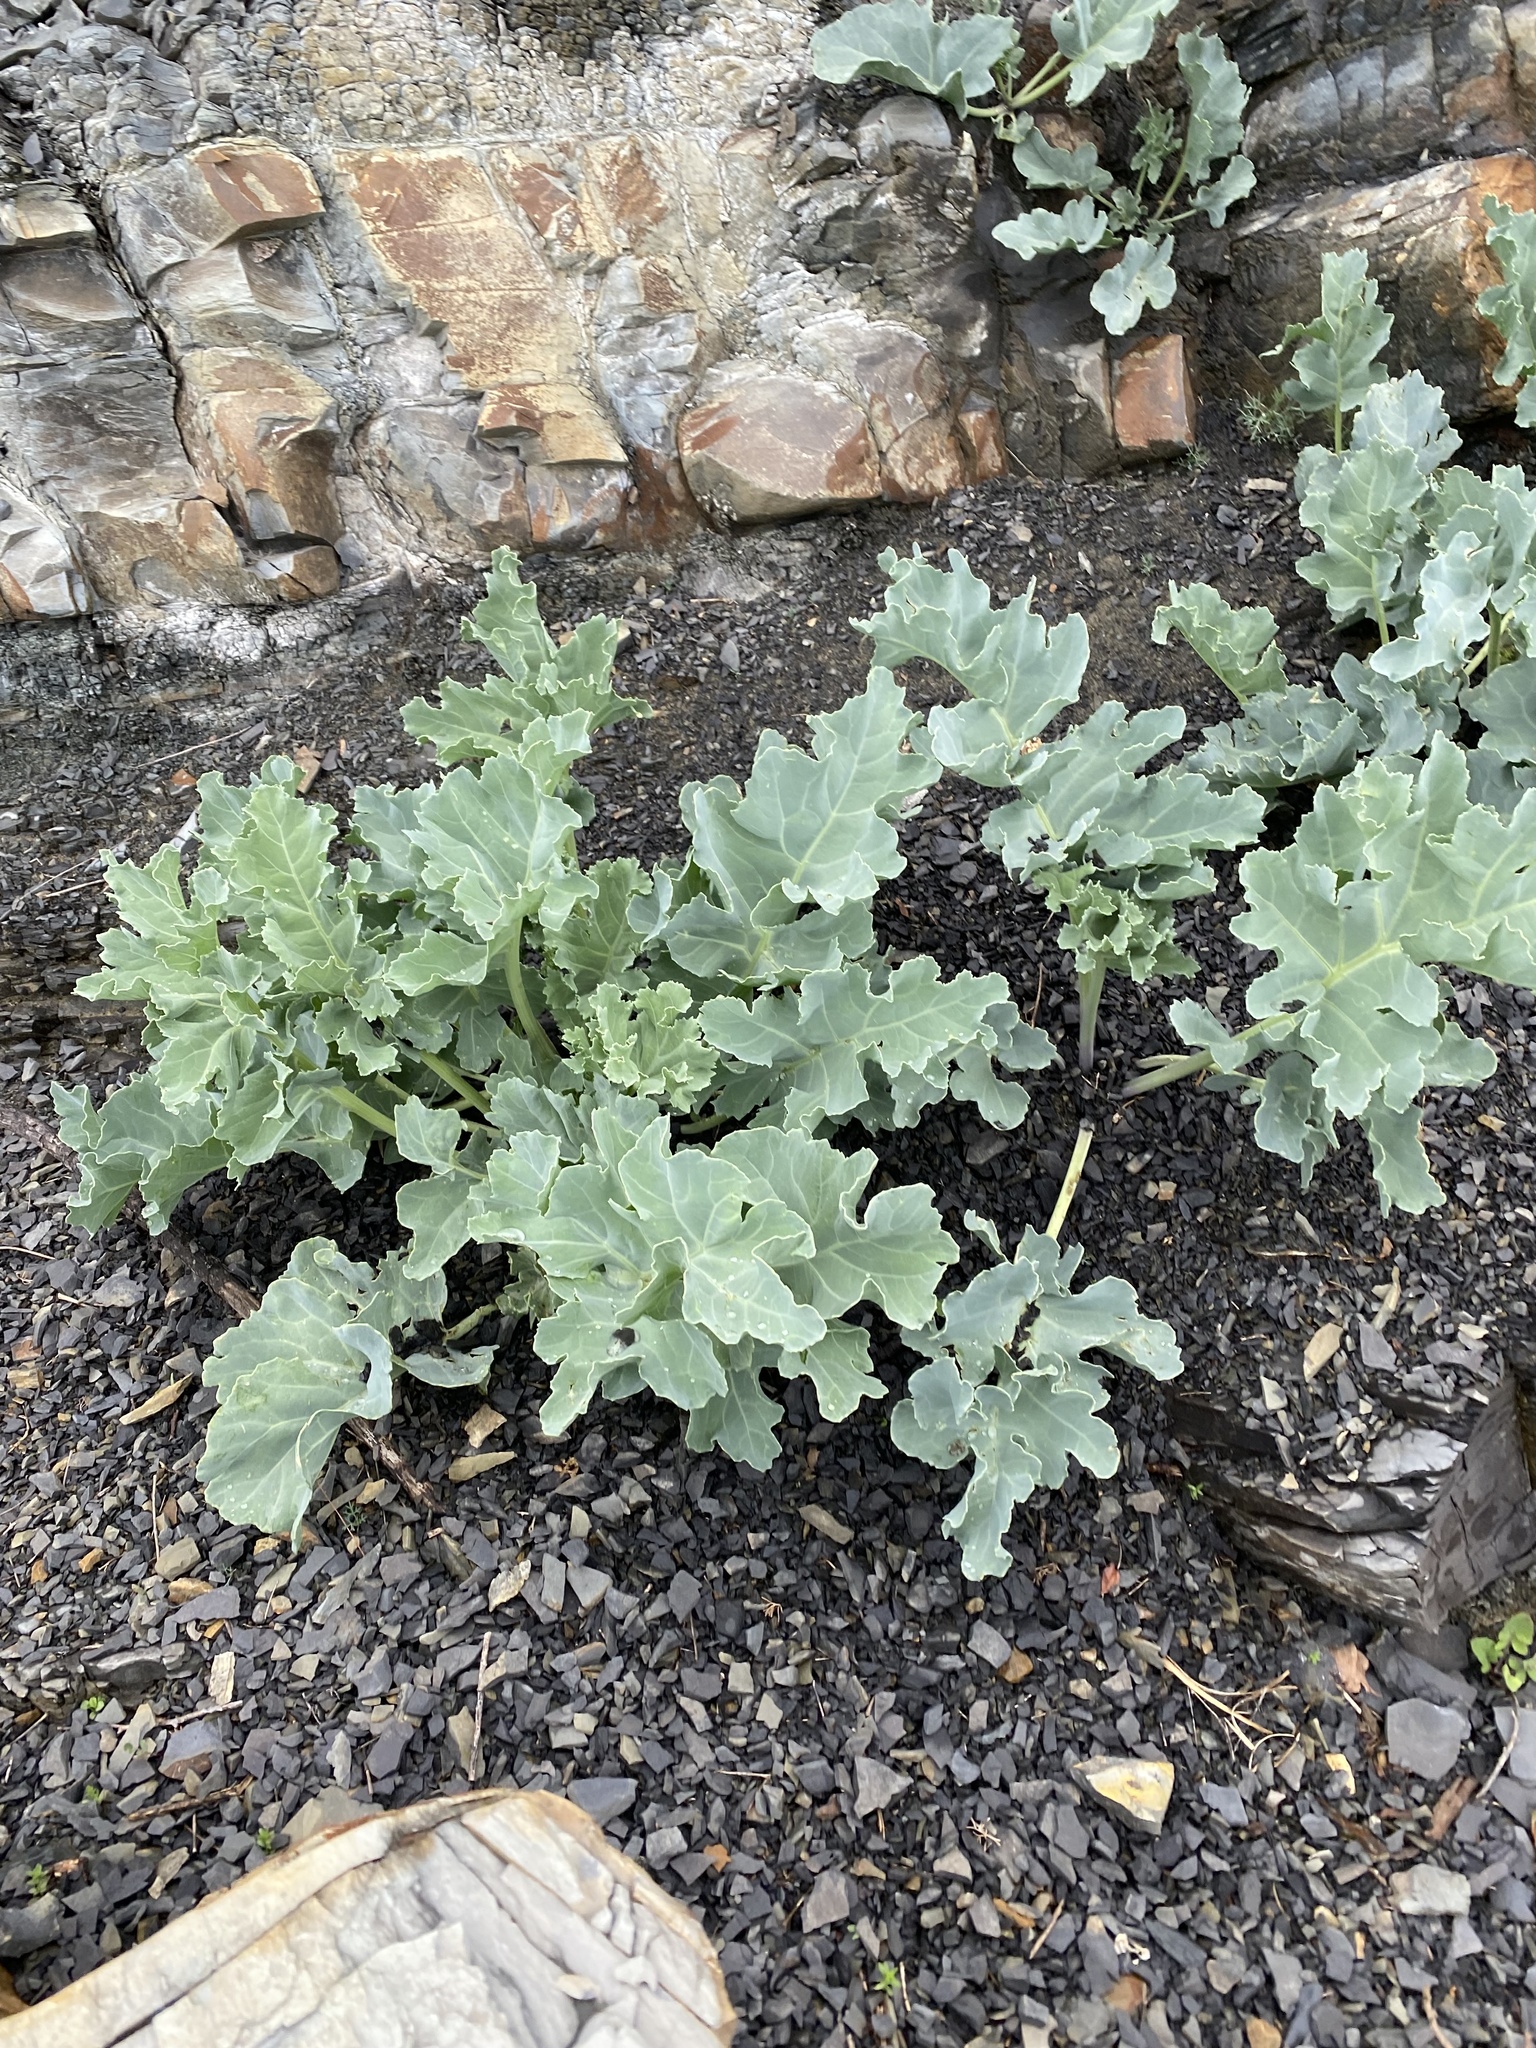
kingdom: Plantae
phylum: Tracheophyta
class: Magnoliopsida
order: Brassicales
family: Brassicaceae
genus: Crambe
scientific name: Crambe maritima
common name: Sea-kale
